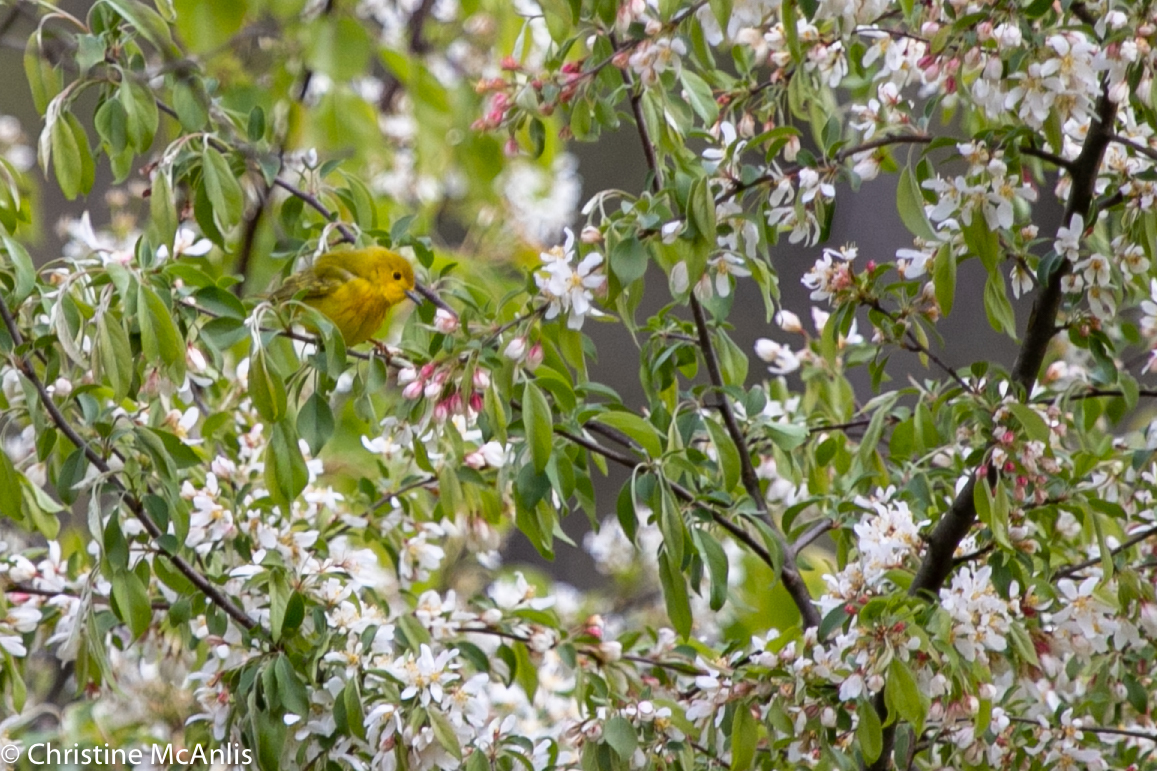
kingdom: Animalia
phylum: Chordata
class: Aves
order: Passeriformes
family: Parulidae
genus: Setophaga
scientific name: Setophaga petechia
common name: Yellow warbler
